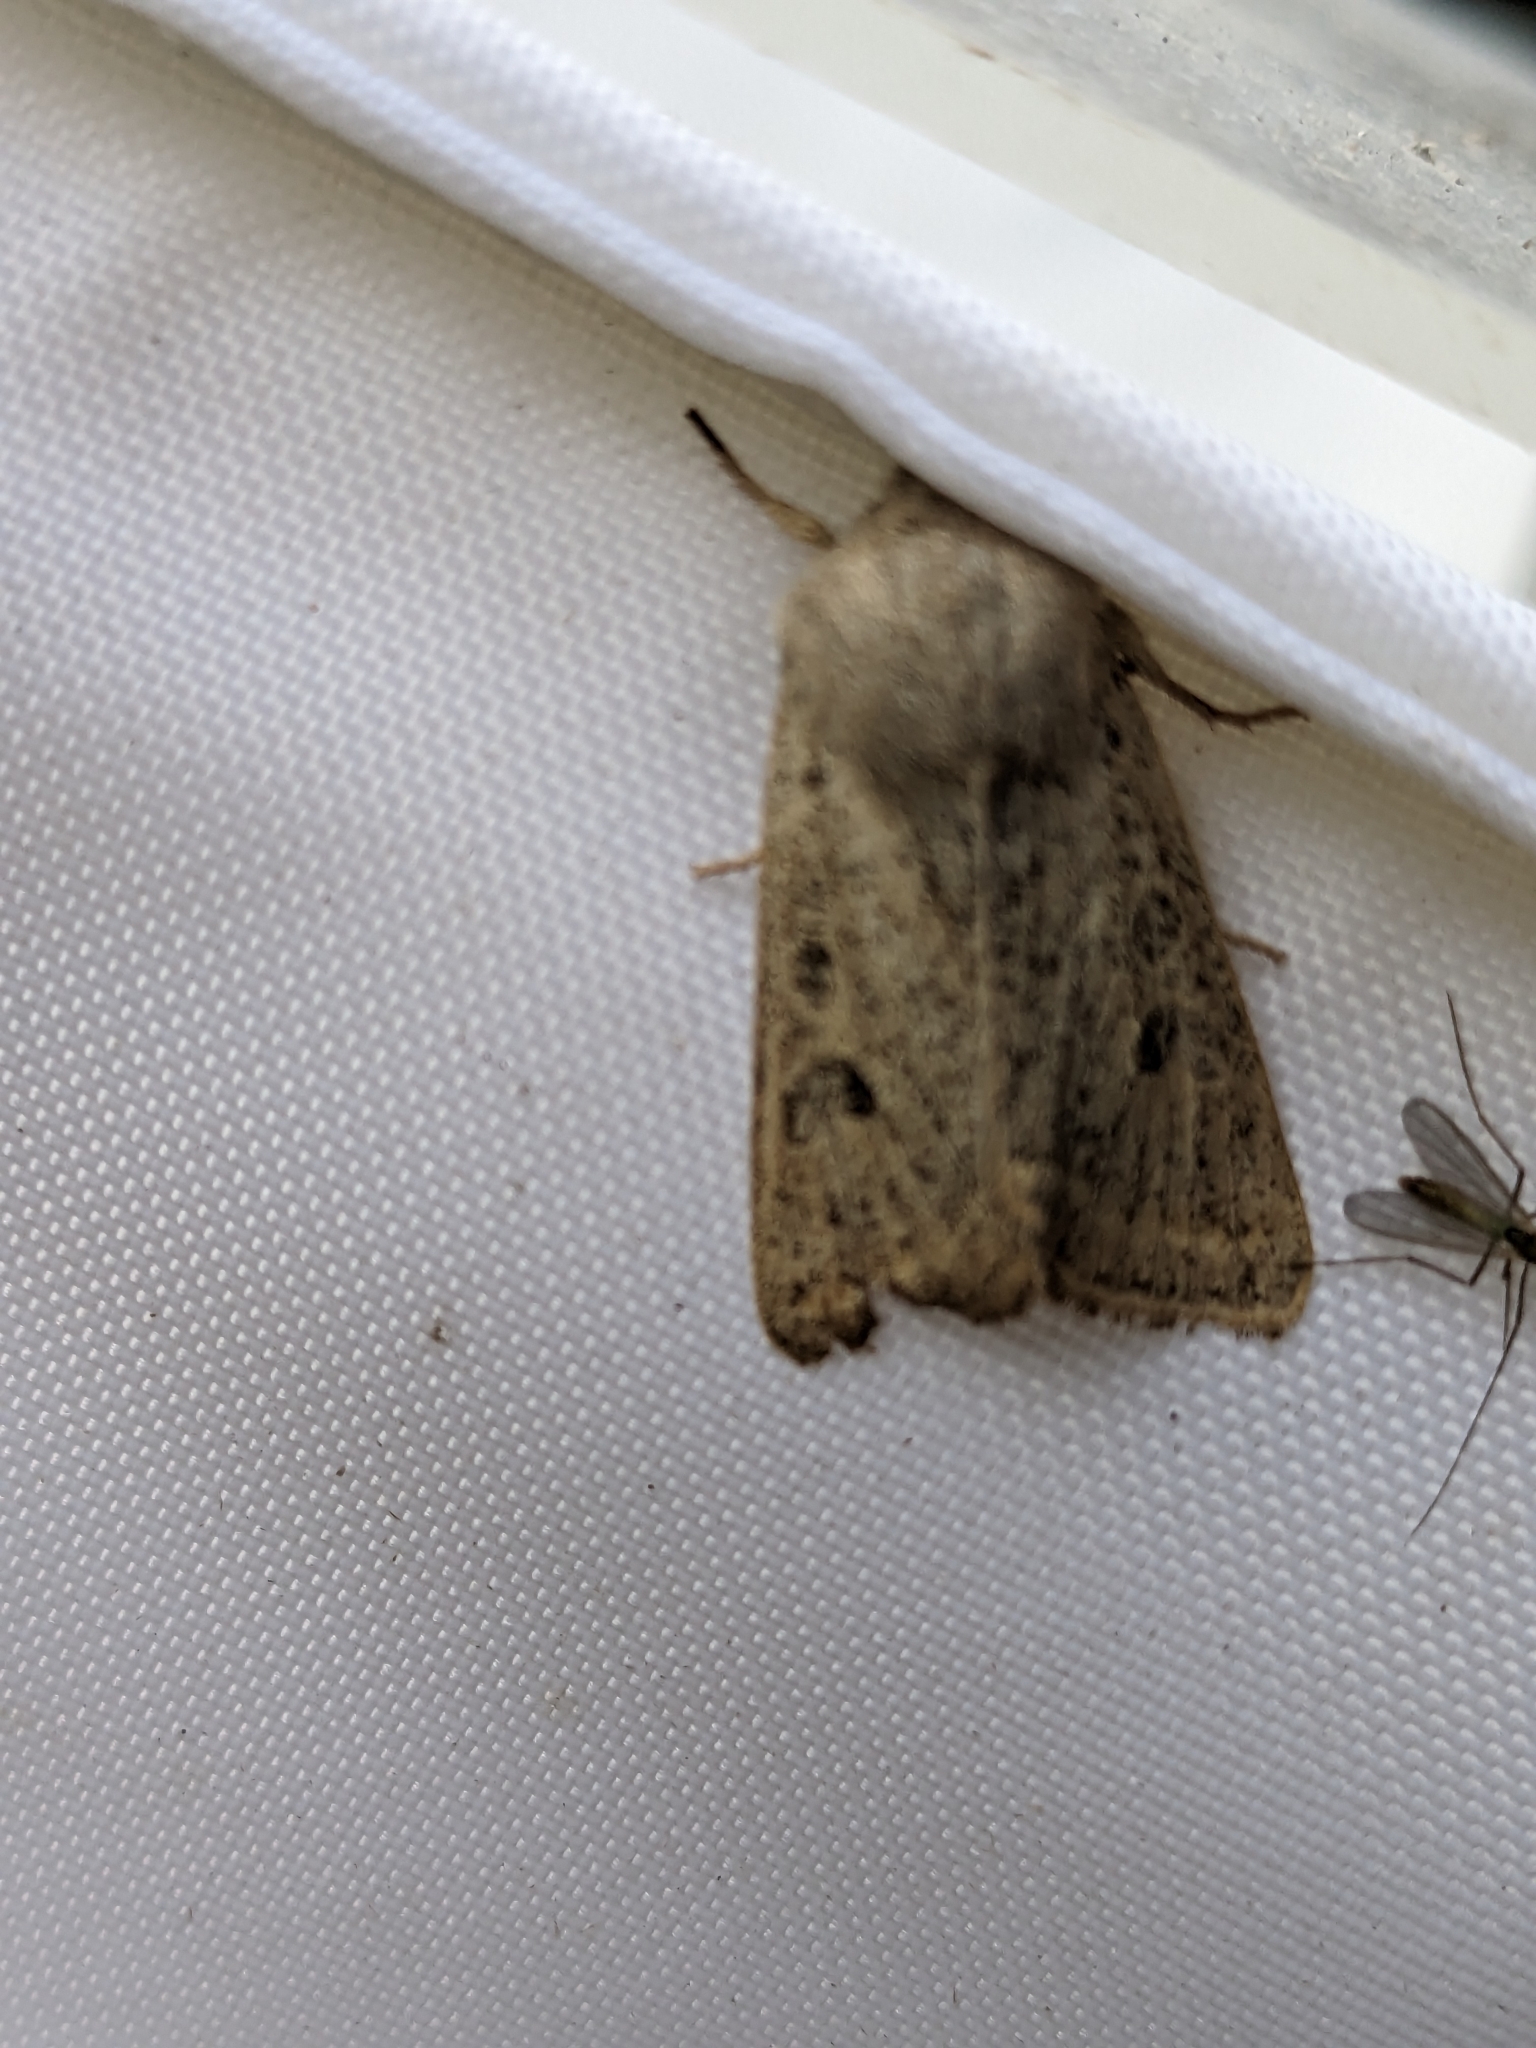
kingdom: Animalia
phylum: Arthropoda
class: Insecta
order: Lepidoptera
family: Noctuidae
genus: Orthosia
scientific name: Orthosia gracilis
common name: Powdered quaker
